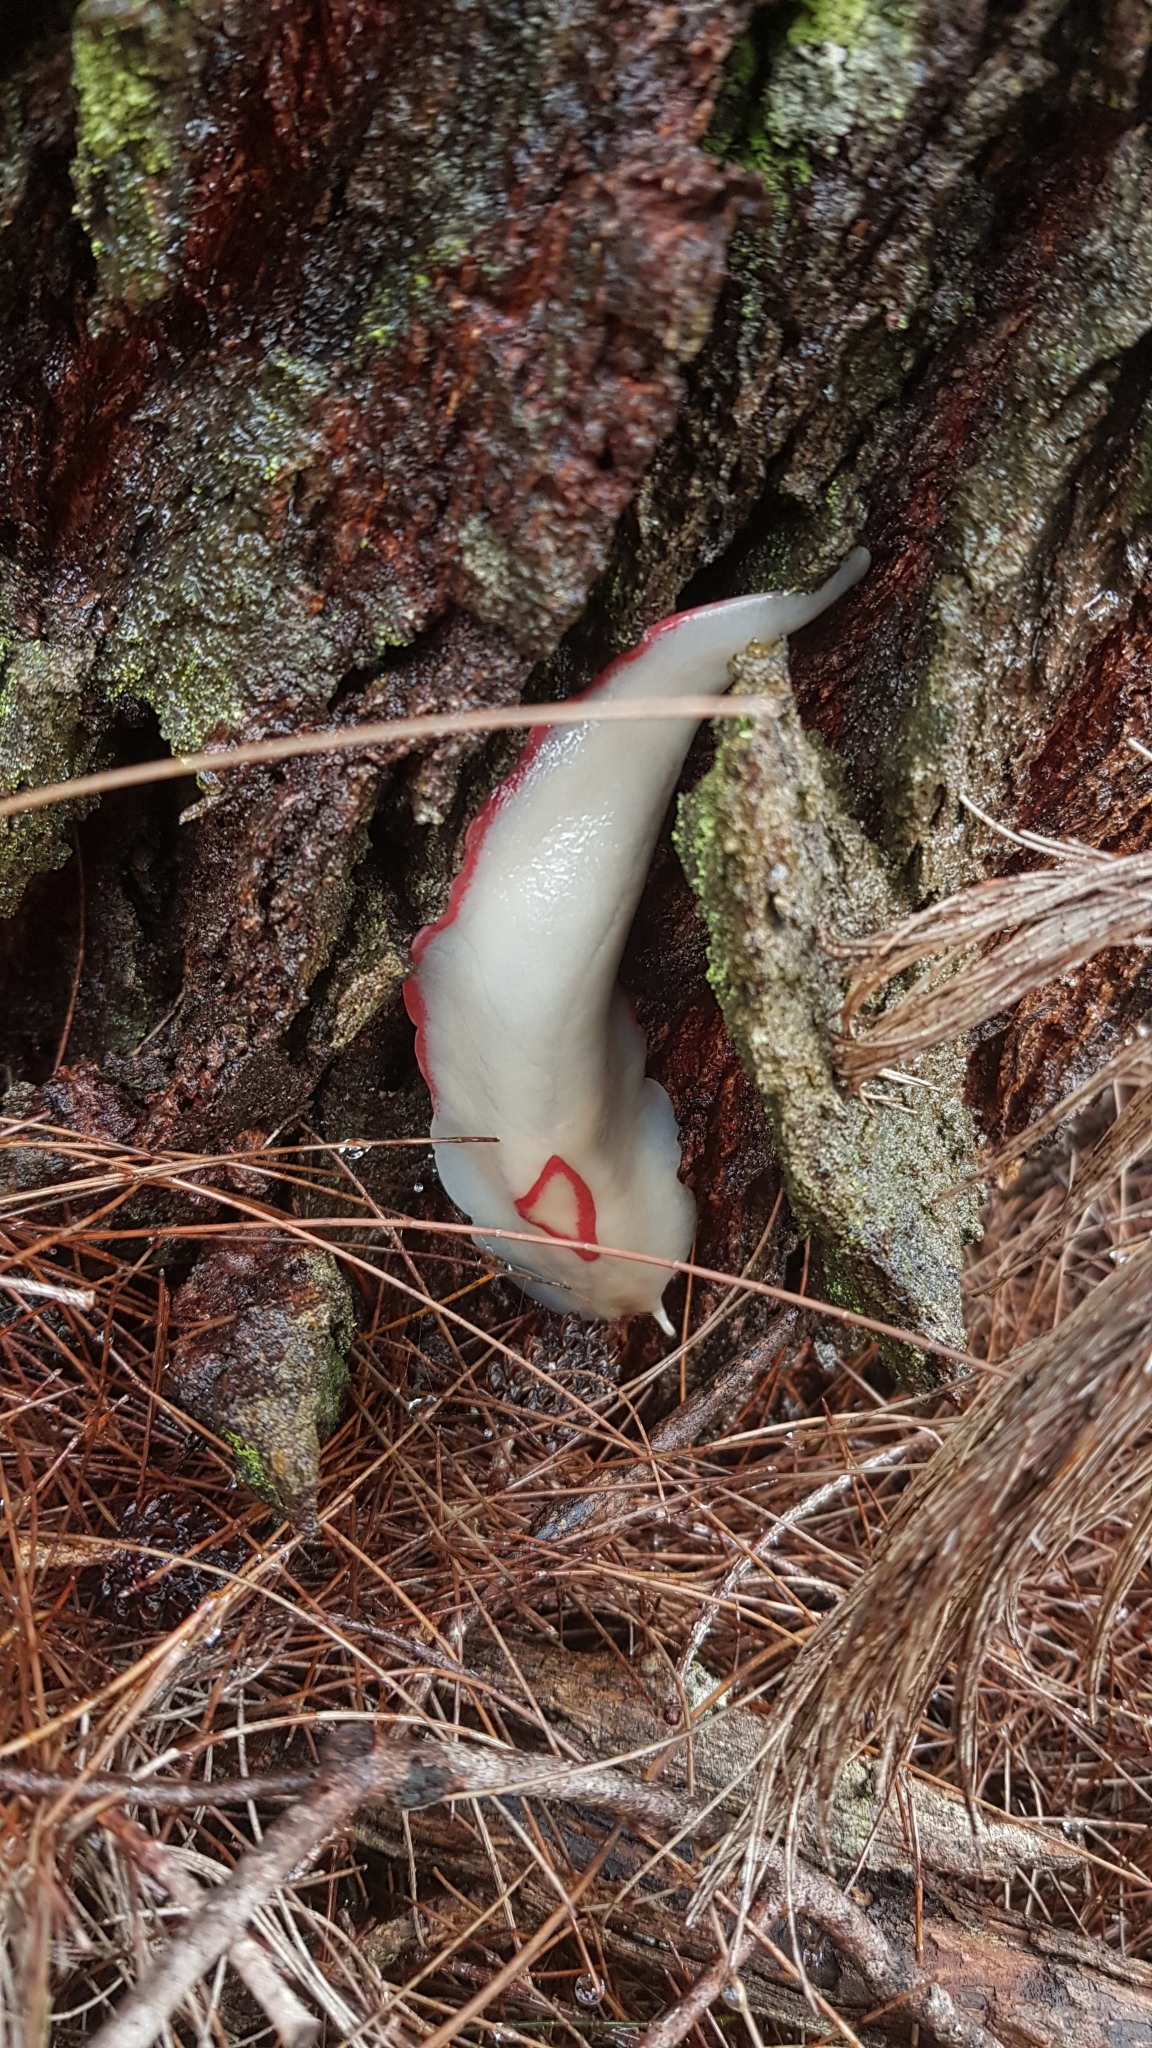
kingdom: Animalia
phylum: Mollusca
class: Gastropoda
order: Stylommatophora
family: Athoracophoridae
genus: Triboniophorus
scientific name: Triboniophorus graeffei
